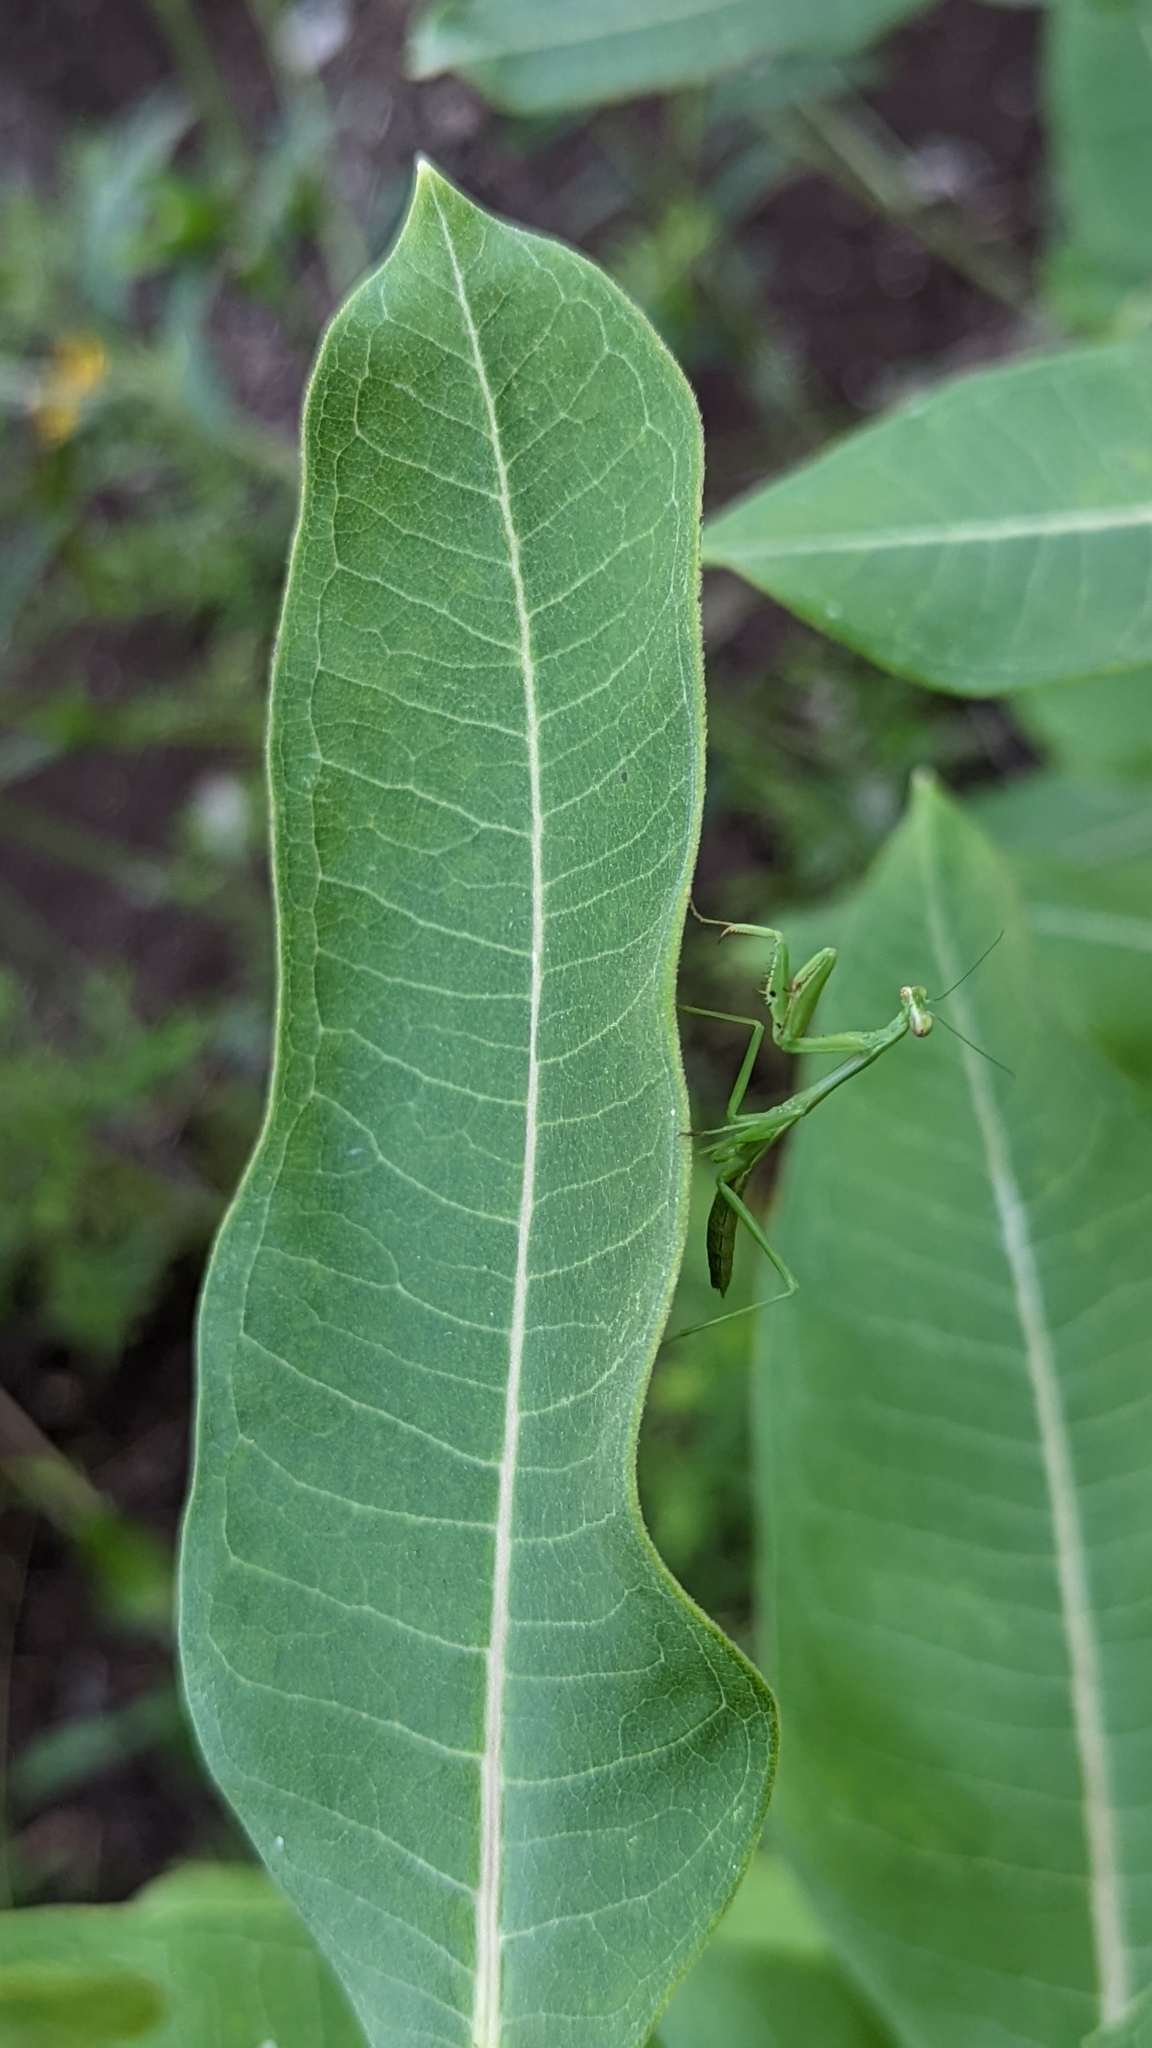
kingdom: Animalia
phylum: Arthropoda
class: Insecta
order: Mantodea
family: Mantidae
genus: Stagmomantis
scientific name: Stagmomantis carolina
